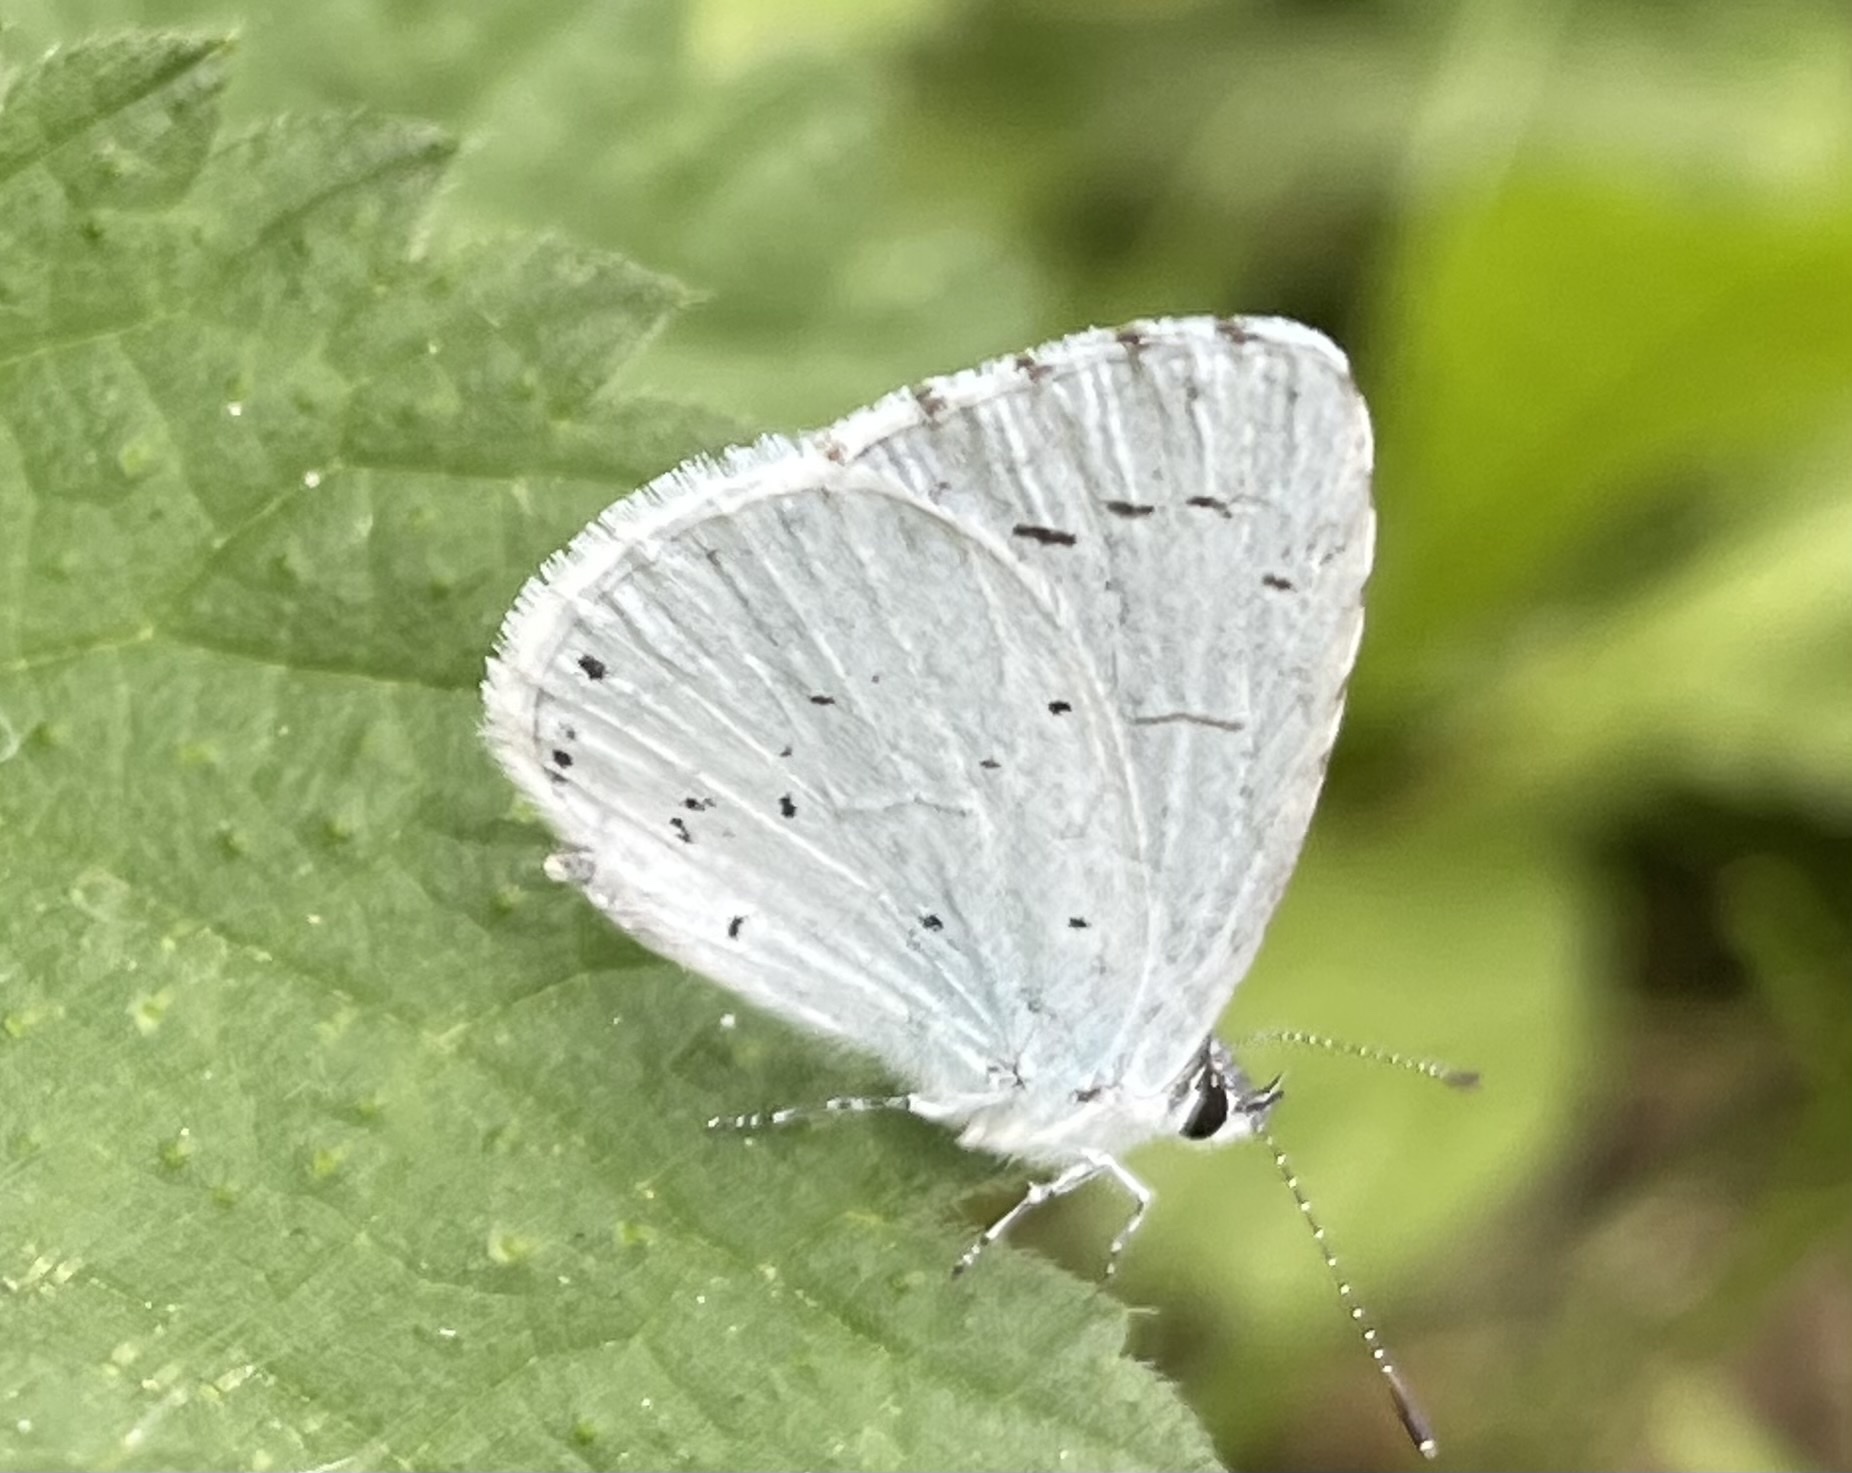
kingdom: Animalia
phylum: Arthropoda
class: Insecta
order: Lepidoptera
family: Lycaenidae
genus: Celastrina
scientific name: Celastrina argiolus
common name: Holly blue
